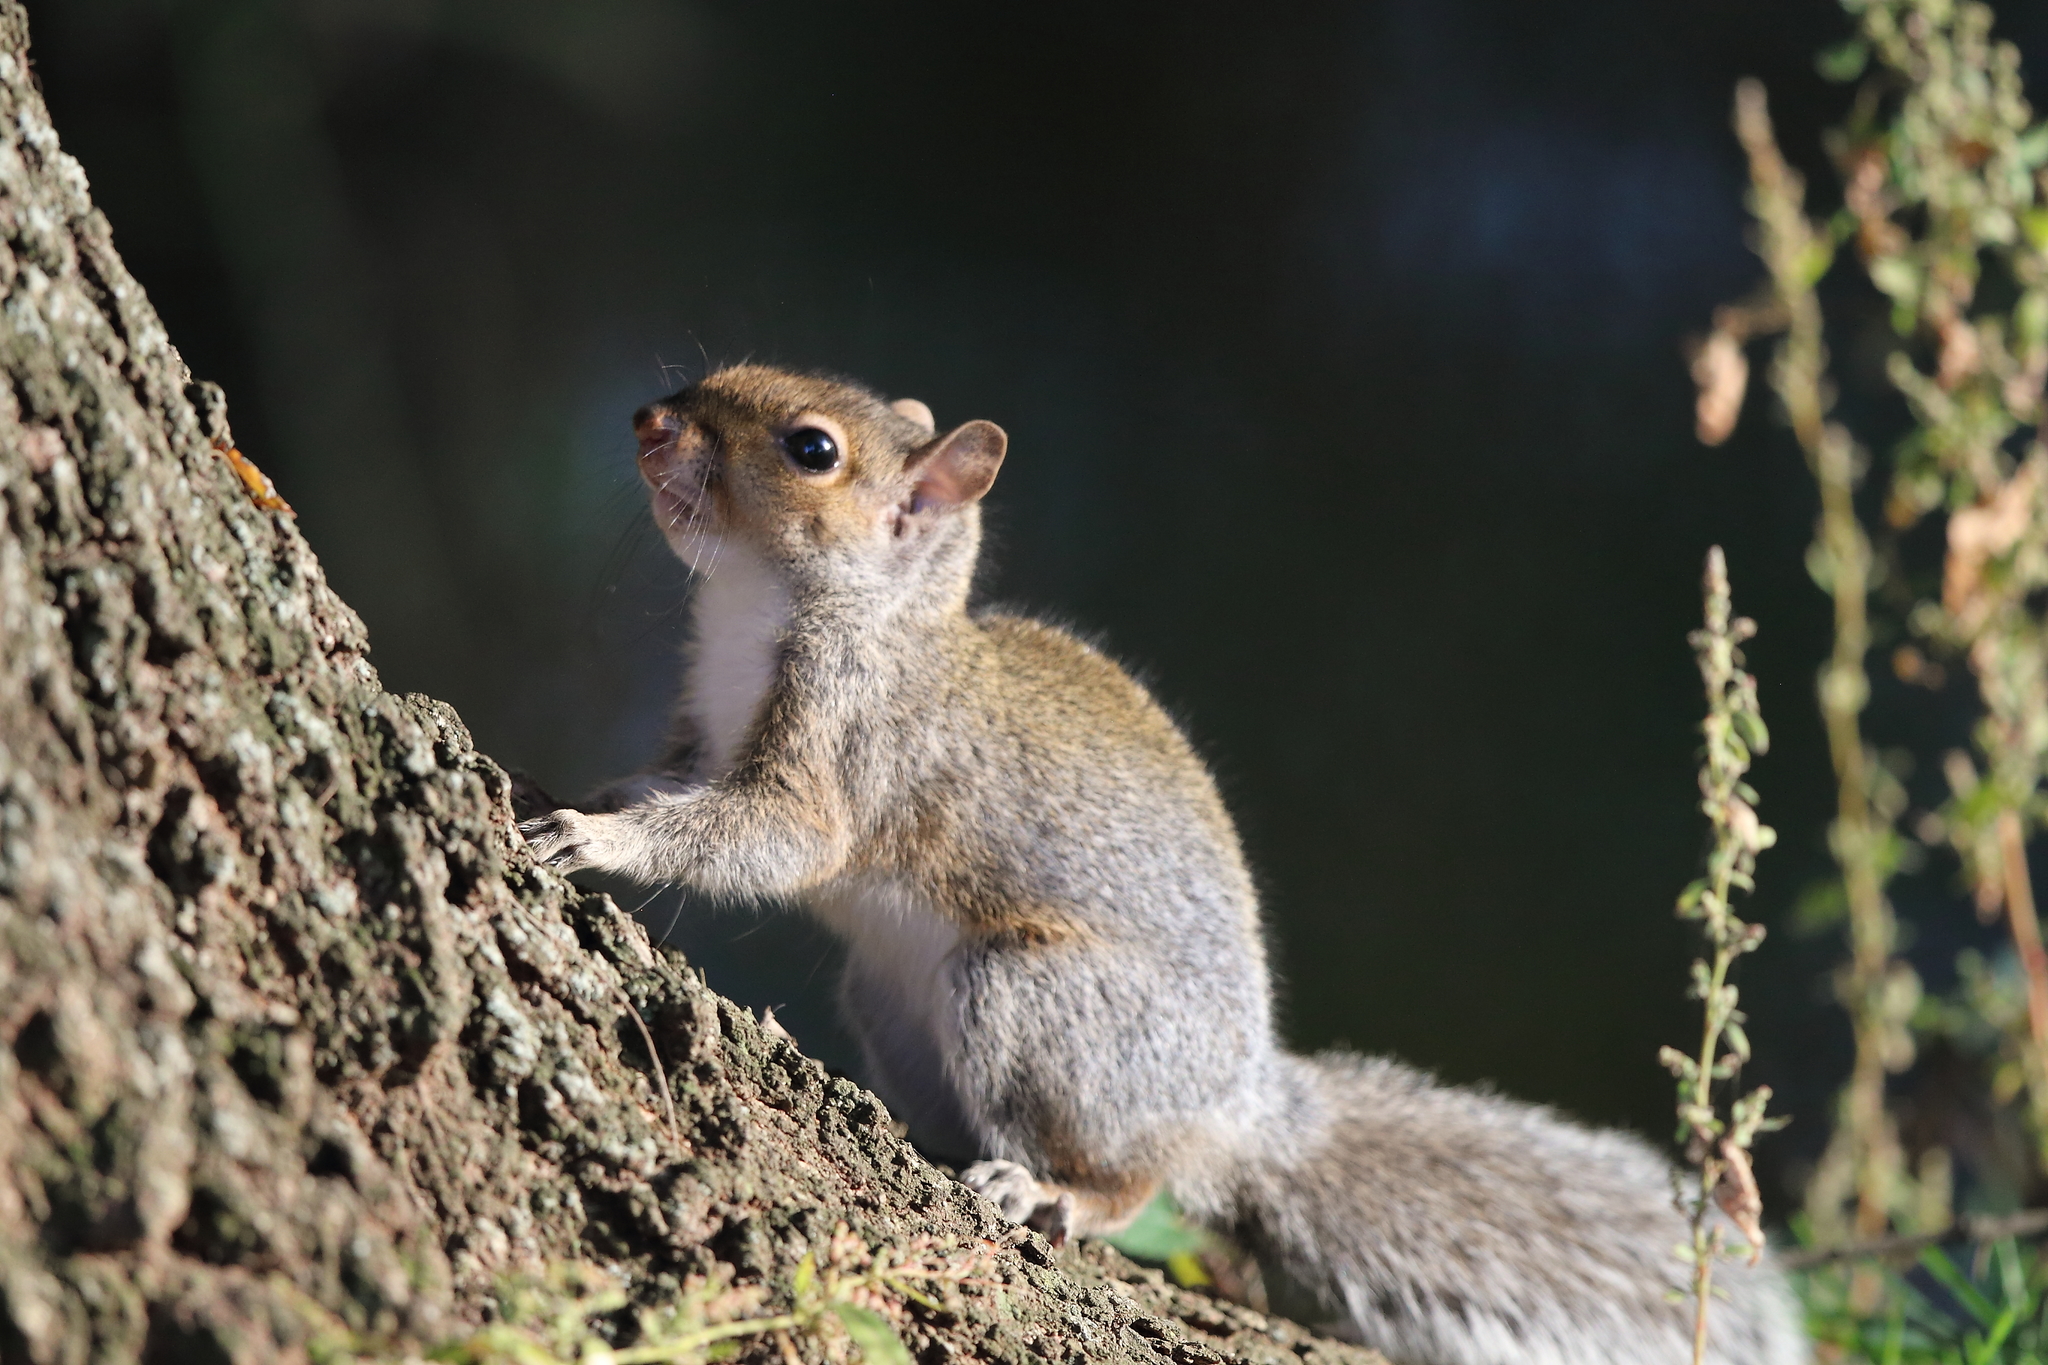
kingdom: Animalia
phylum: Chordata
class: Mammalia
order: Rodentia
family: Sciuridae
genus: Sciurus
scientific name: Sciurus carolinensis
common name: Eastern gray squirrel
